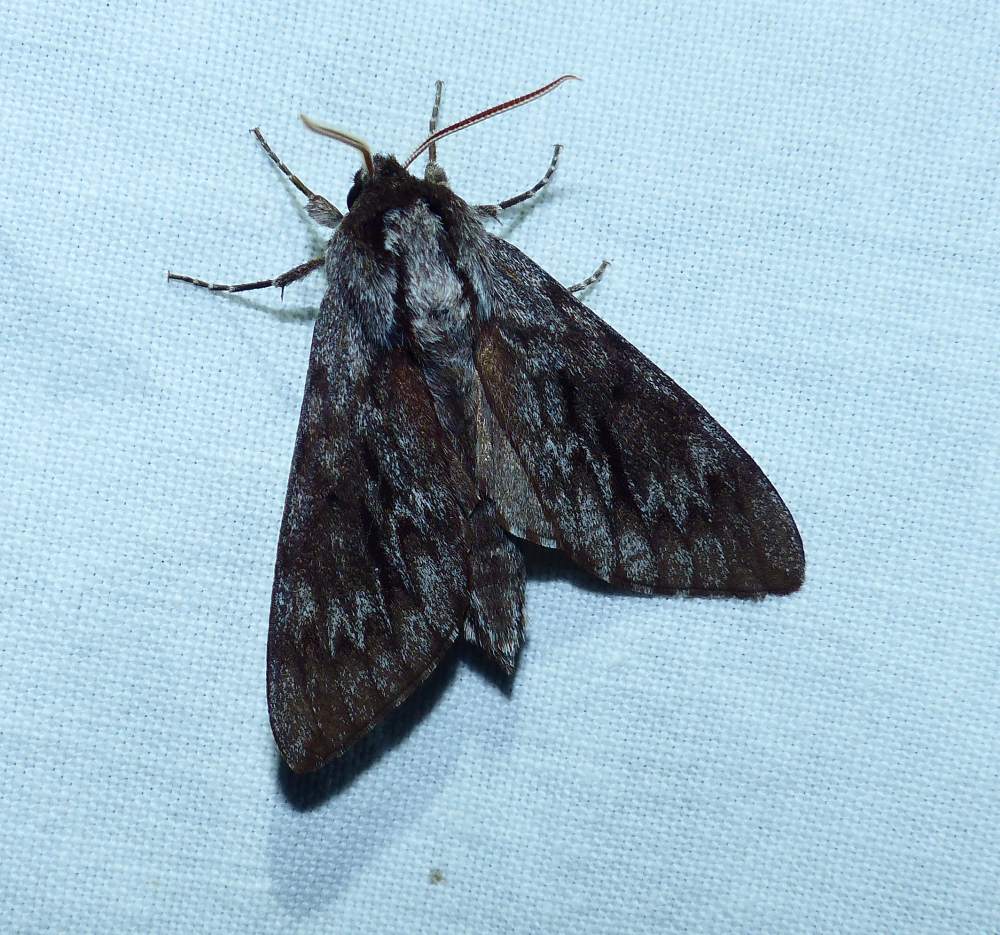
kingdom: Animalia
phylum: Arthropoda
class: Insecta
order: Lepidoptera
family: Sphingidae
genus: Lapara
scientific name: Lapara bombycoides
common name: Northern pine sphinx
